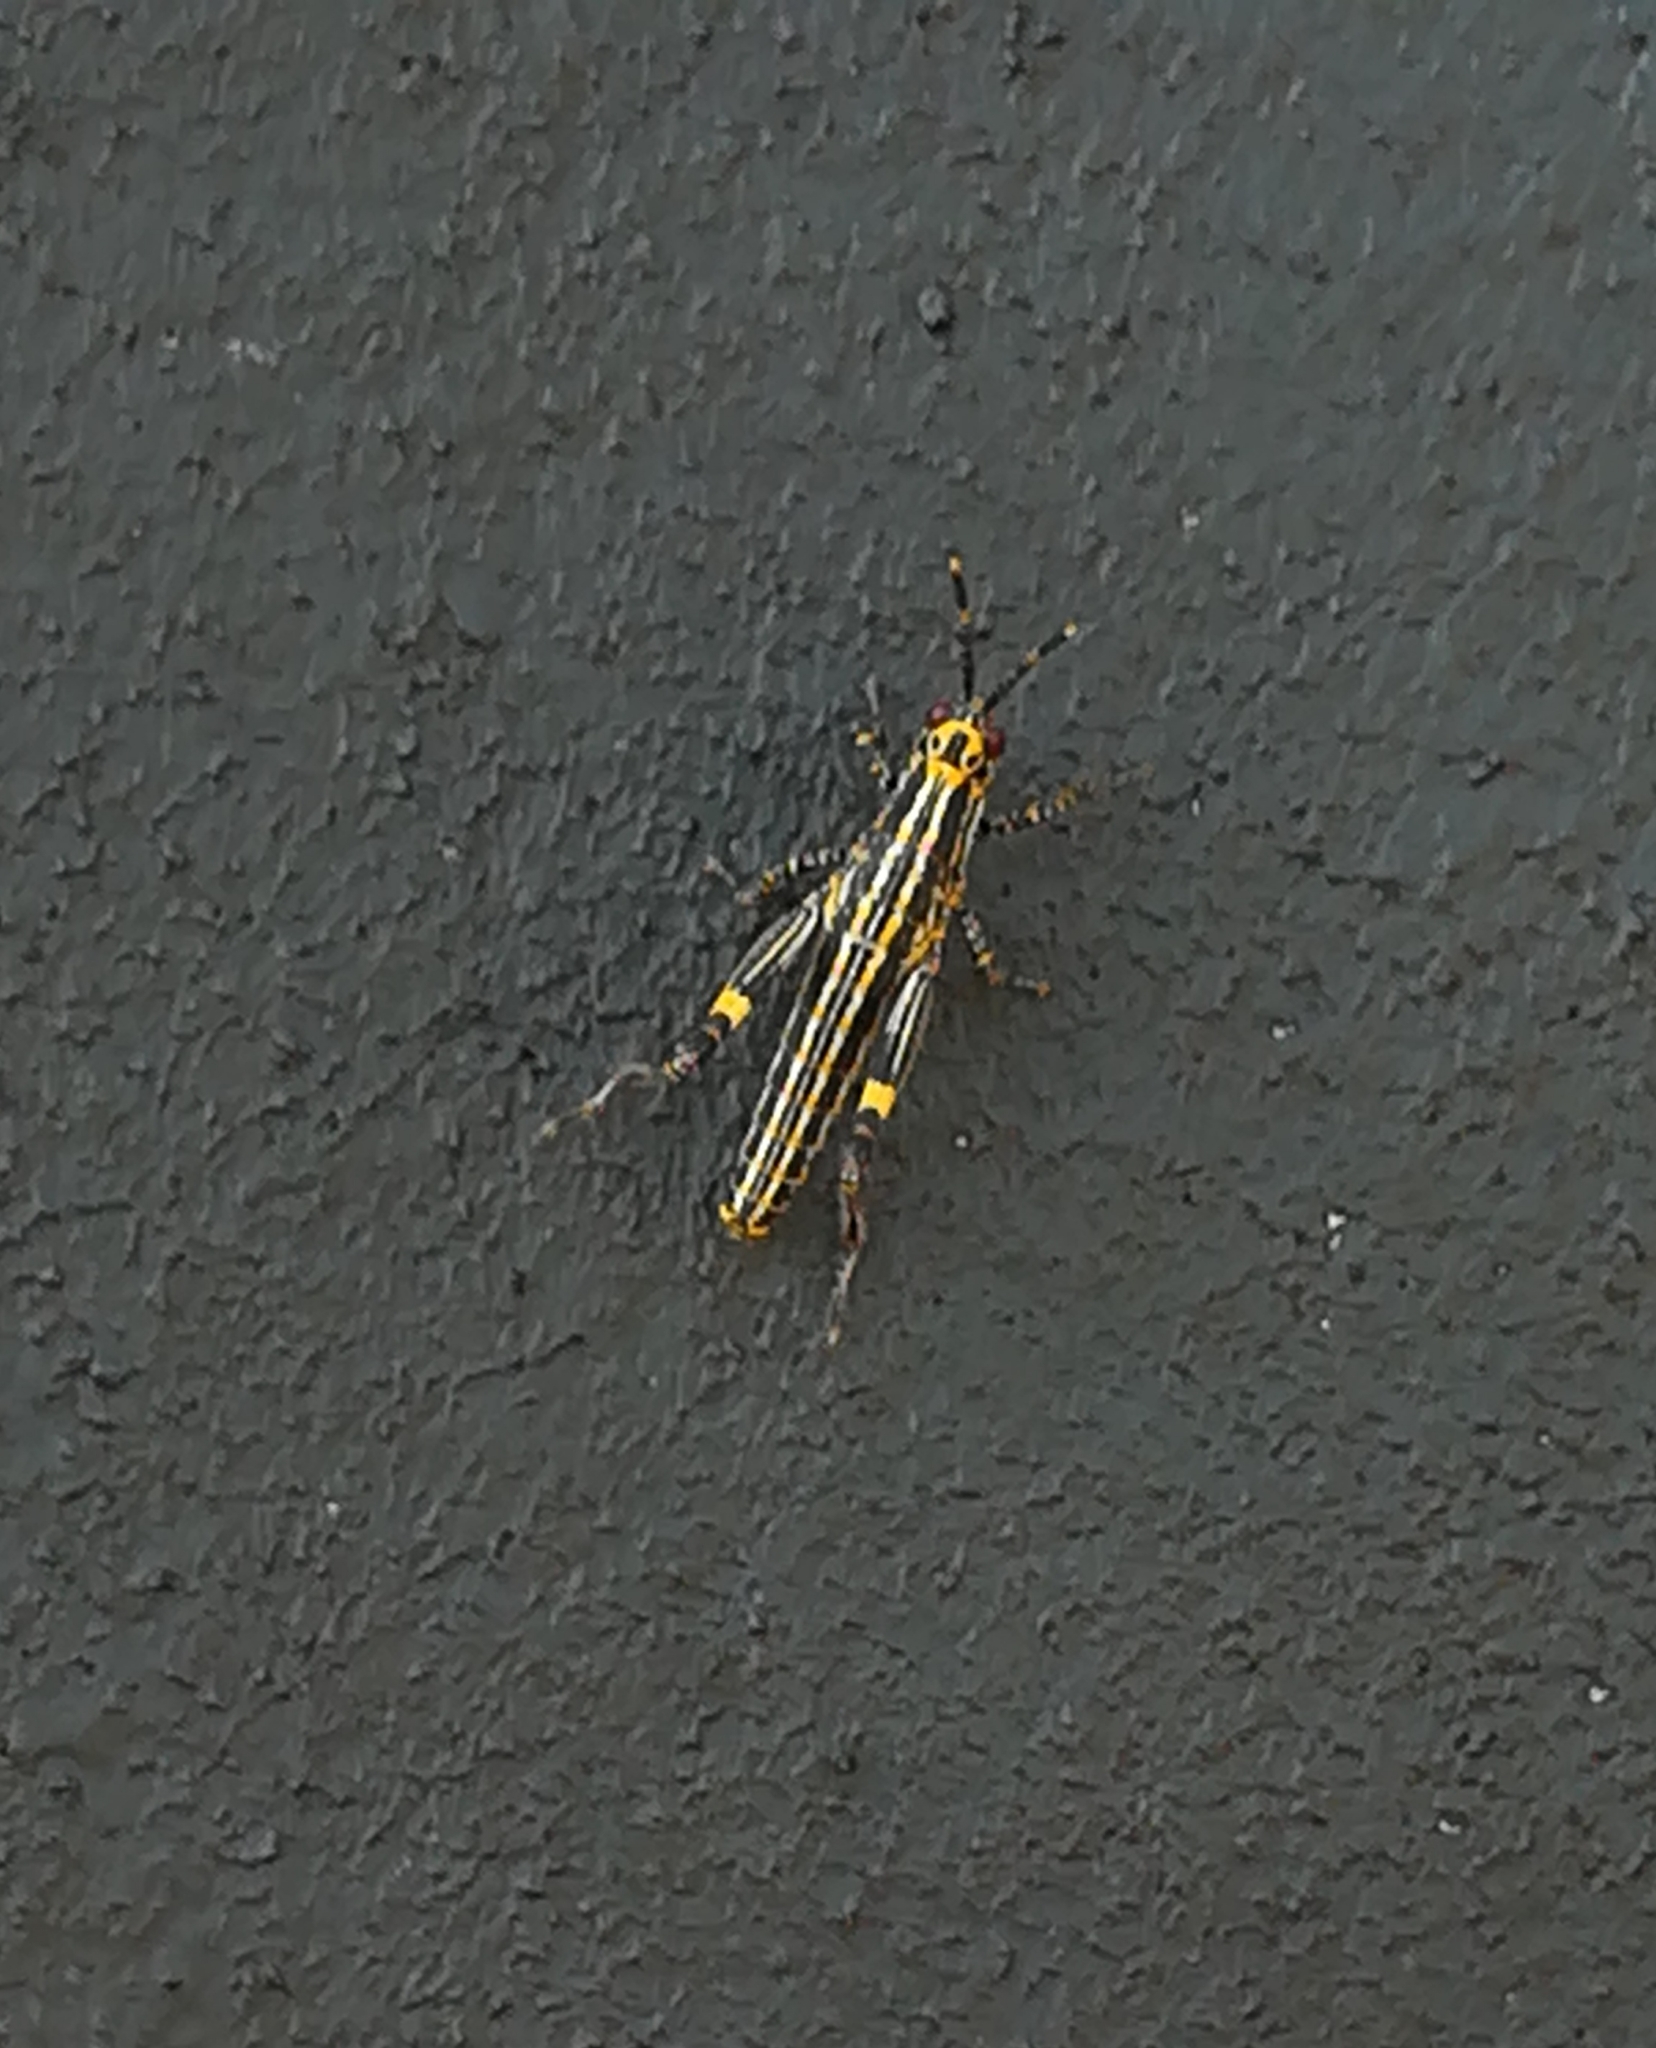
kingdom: Animalia
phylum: Arthropoda
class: Insecta
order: Orthoptera
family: Pyrgomorphidae
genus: Zonocerus
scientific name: Zonocerus variegatus
